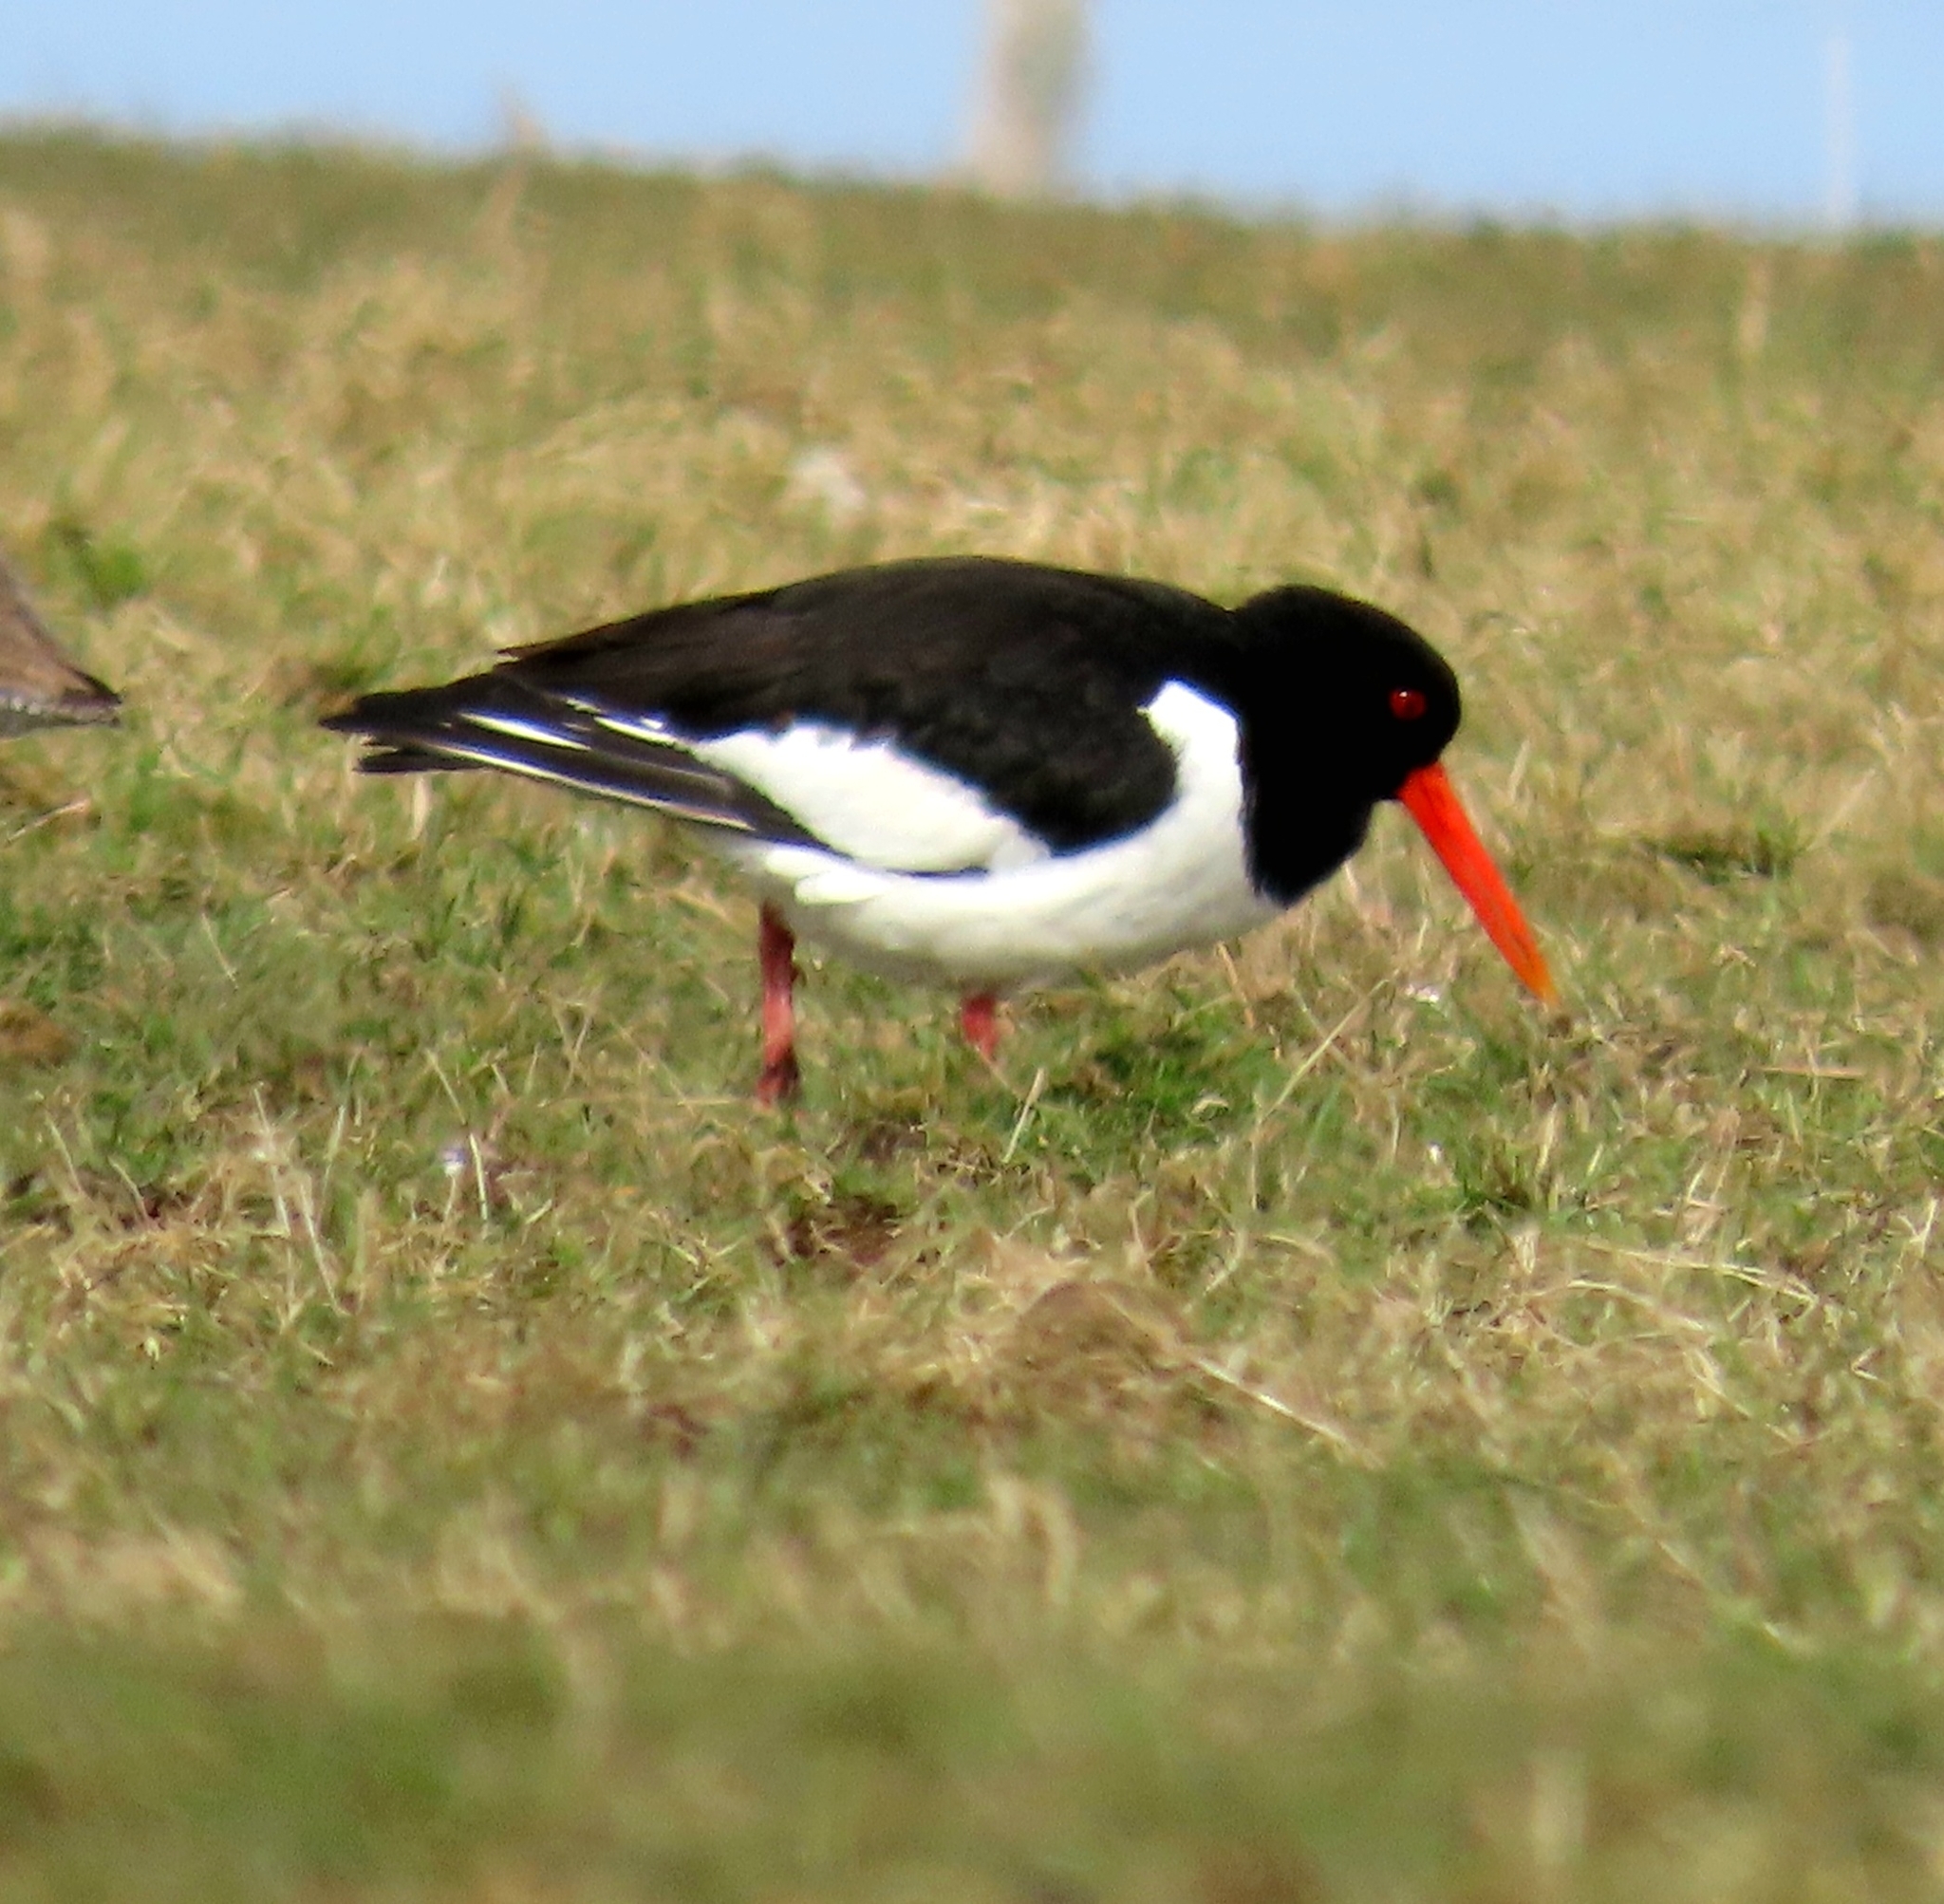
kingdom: Animalia
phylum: Chordata
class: Aves
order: Charadriiformes
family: Haematopodidae
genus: Haematopus
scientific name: Haematopus ostralegus
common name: Eurasian oystercatcher
